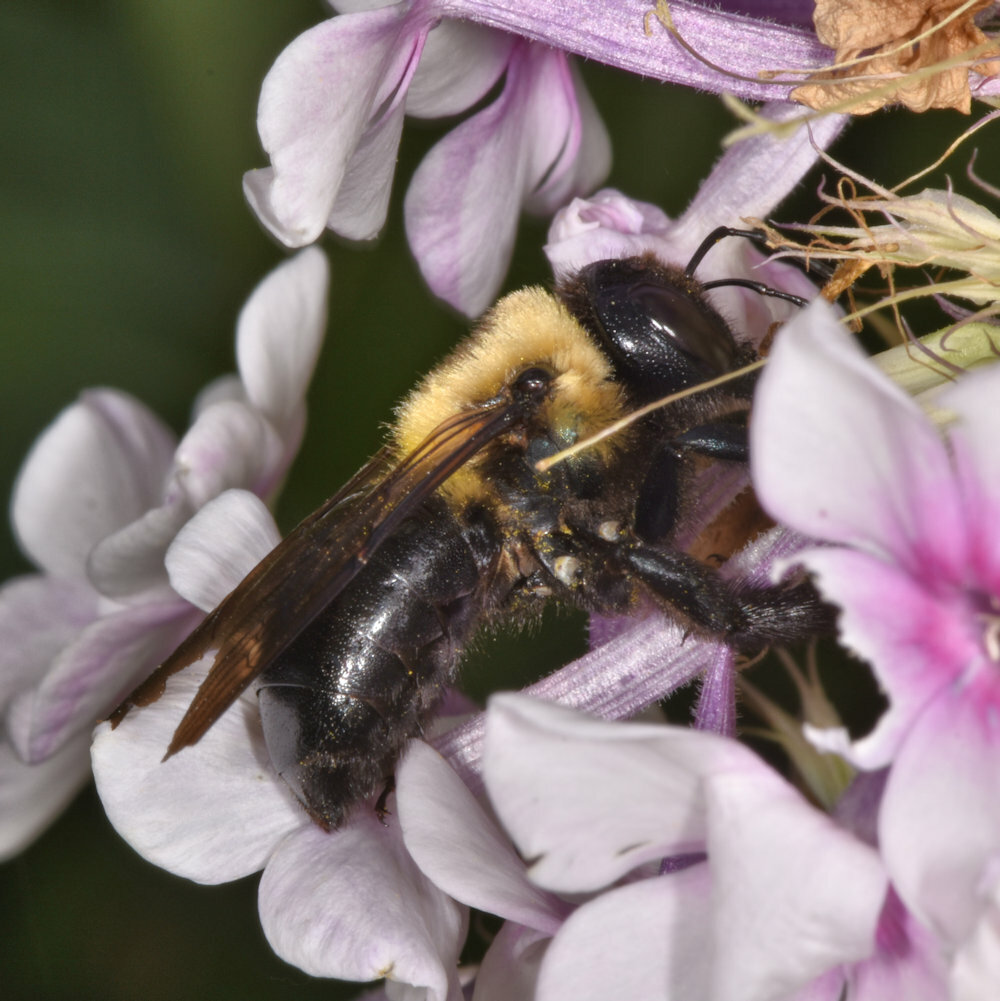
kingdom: Animalia
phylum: Arthropoda
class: Insecta
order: Hymenoptera
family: Apidae
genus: Xylocopa
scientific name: Xylocopa virginica
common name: Carpenter bee
